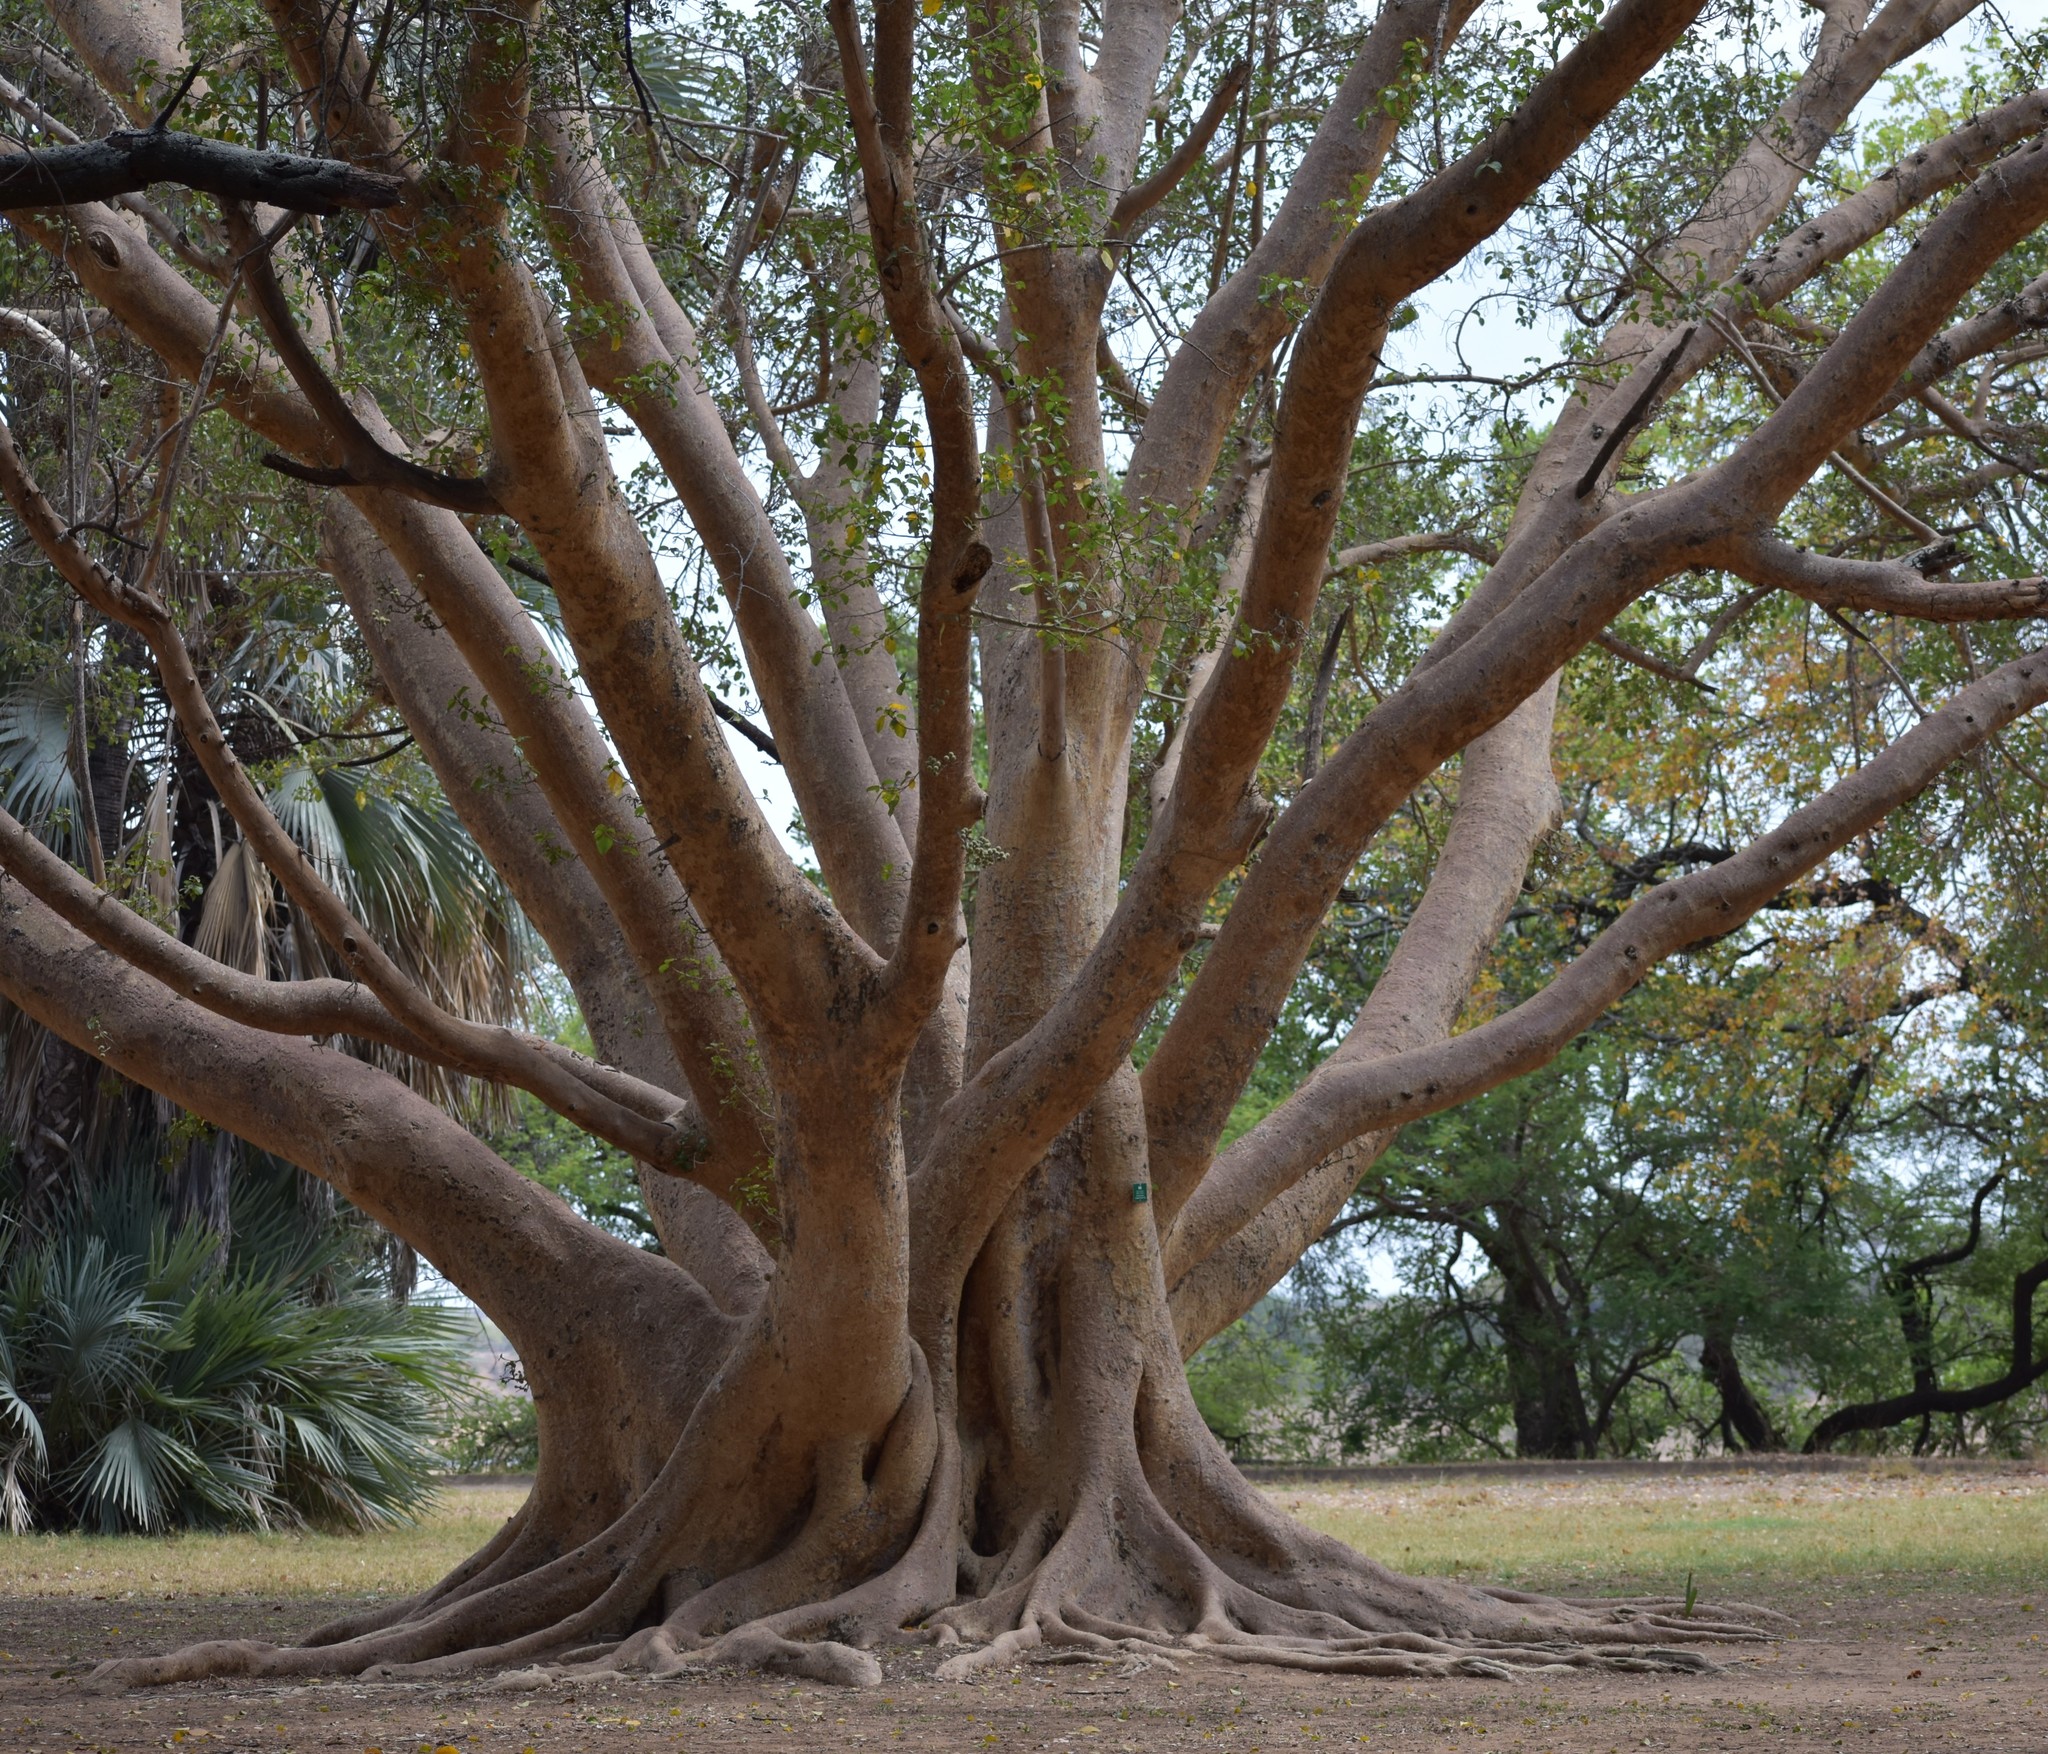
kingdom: Plantae
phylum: Tracheophyta
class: Magnoliopsida
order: Rosales
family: Moraceae
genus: Ficus
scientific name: Ficus sycomorus
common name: Sycomore
